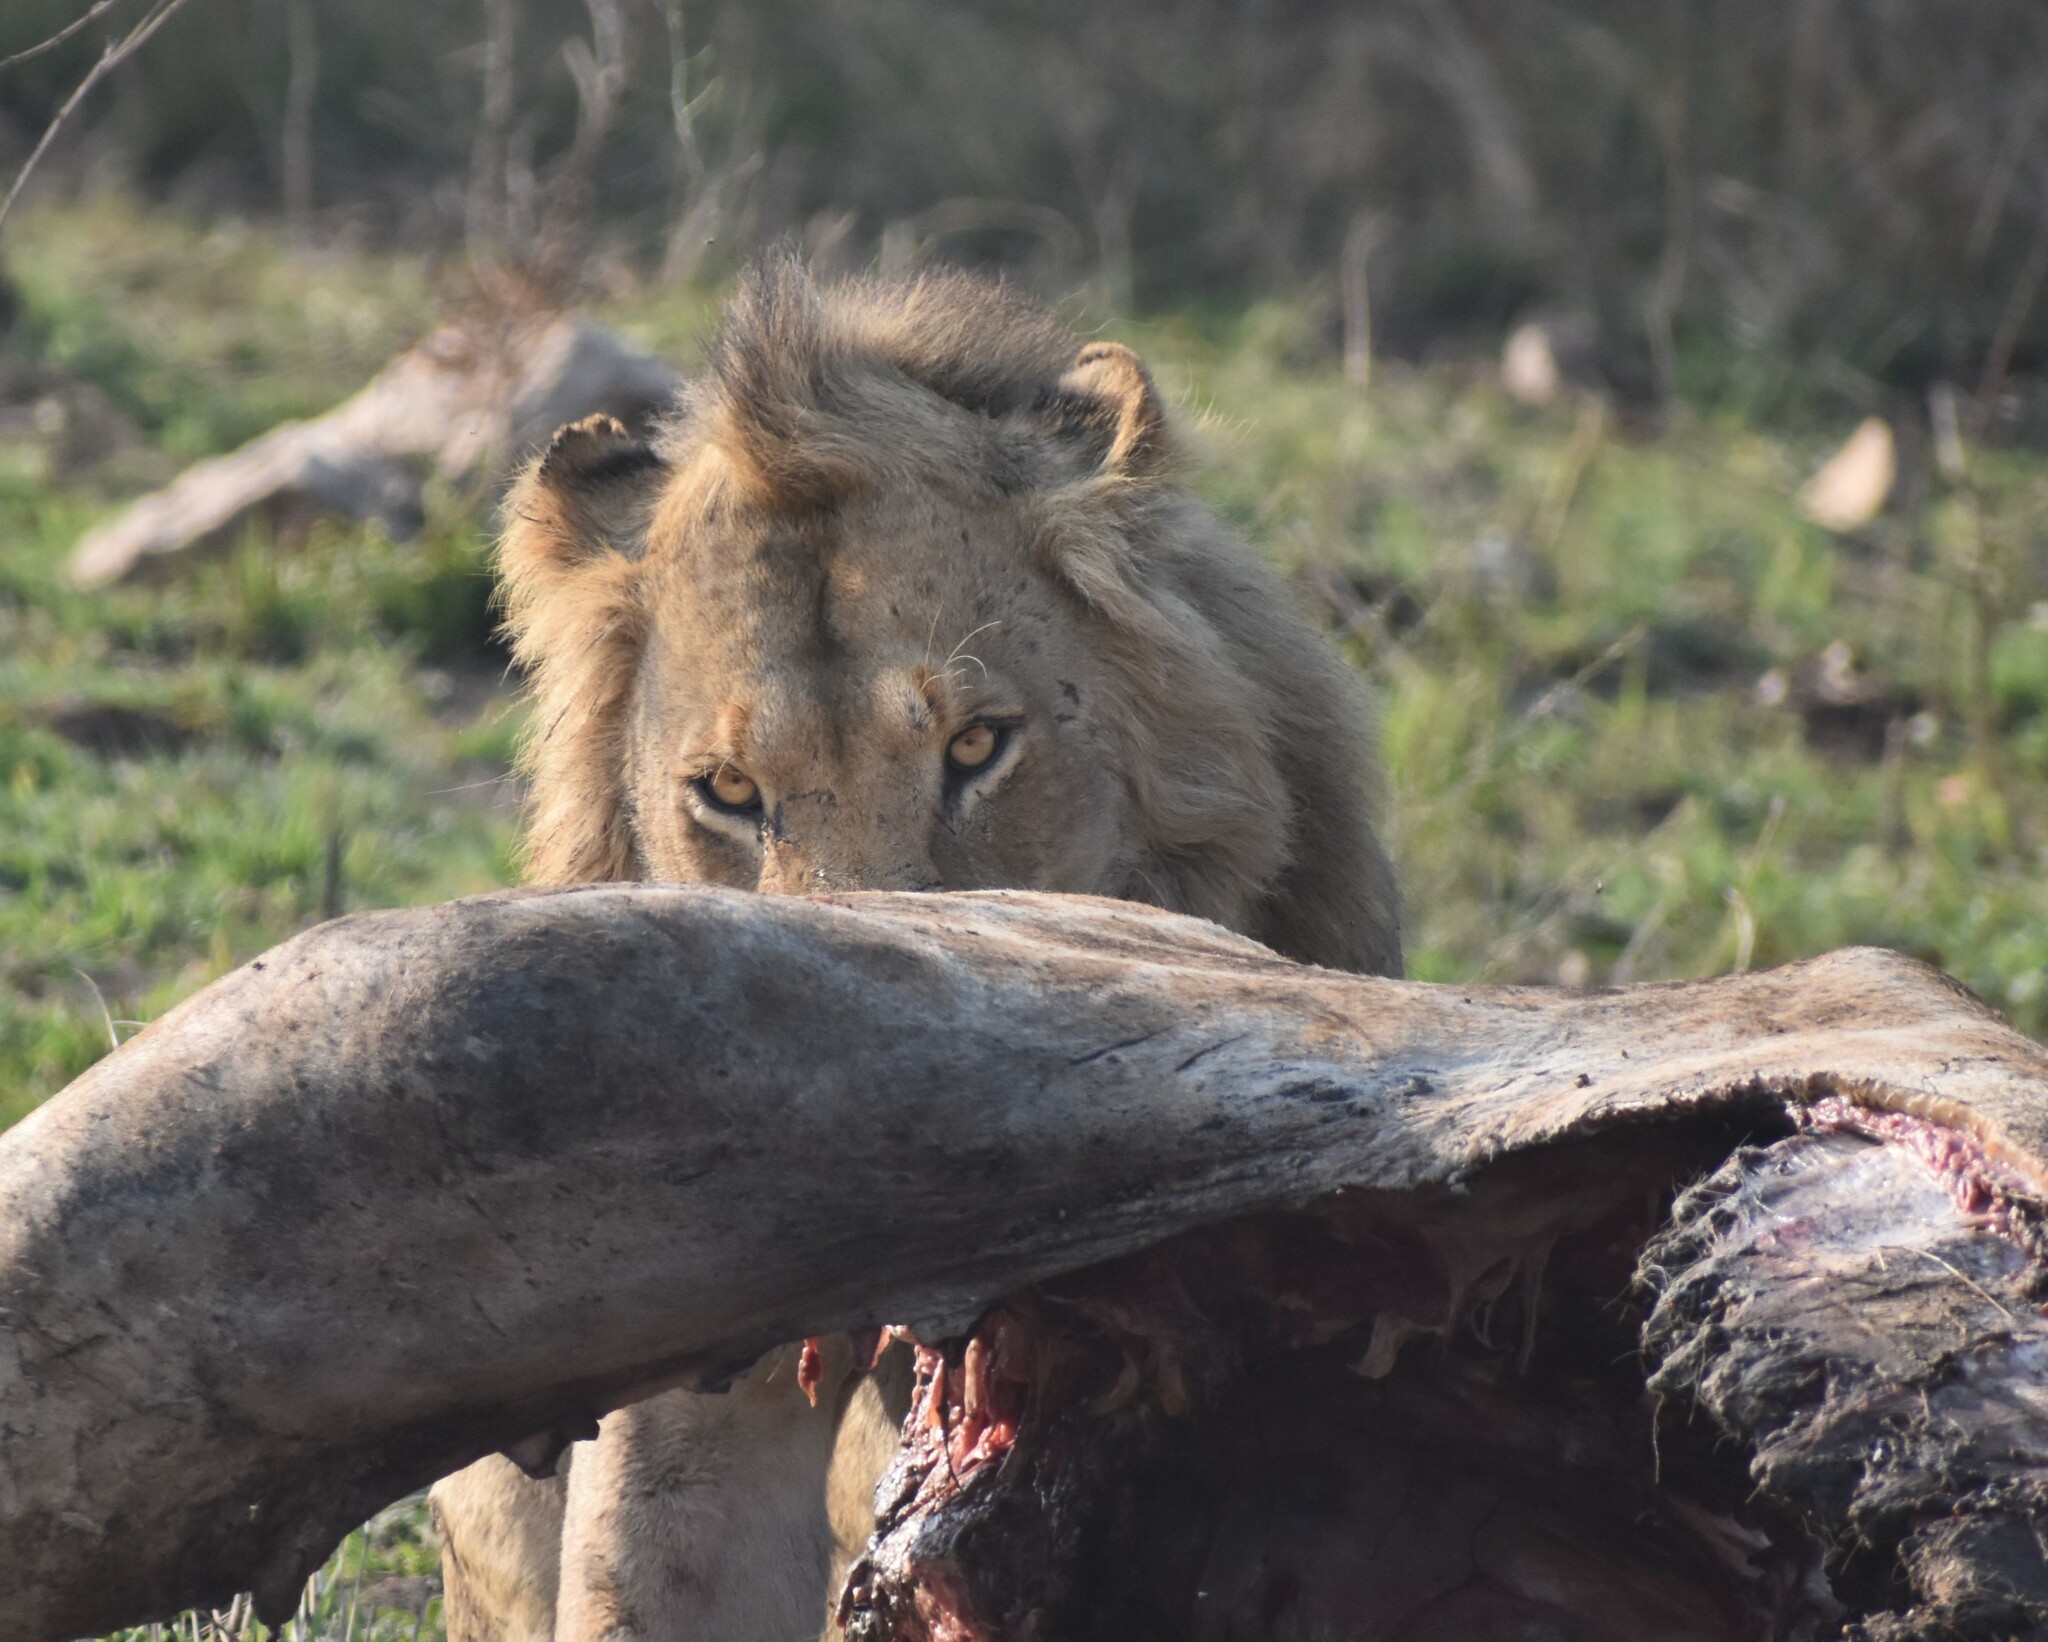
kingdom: Animalia
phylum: Chordata
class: Mammalia
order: Carnivora
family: Felidae
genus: Panthera
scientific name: Panthera leo
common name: Lion
